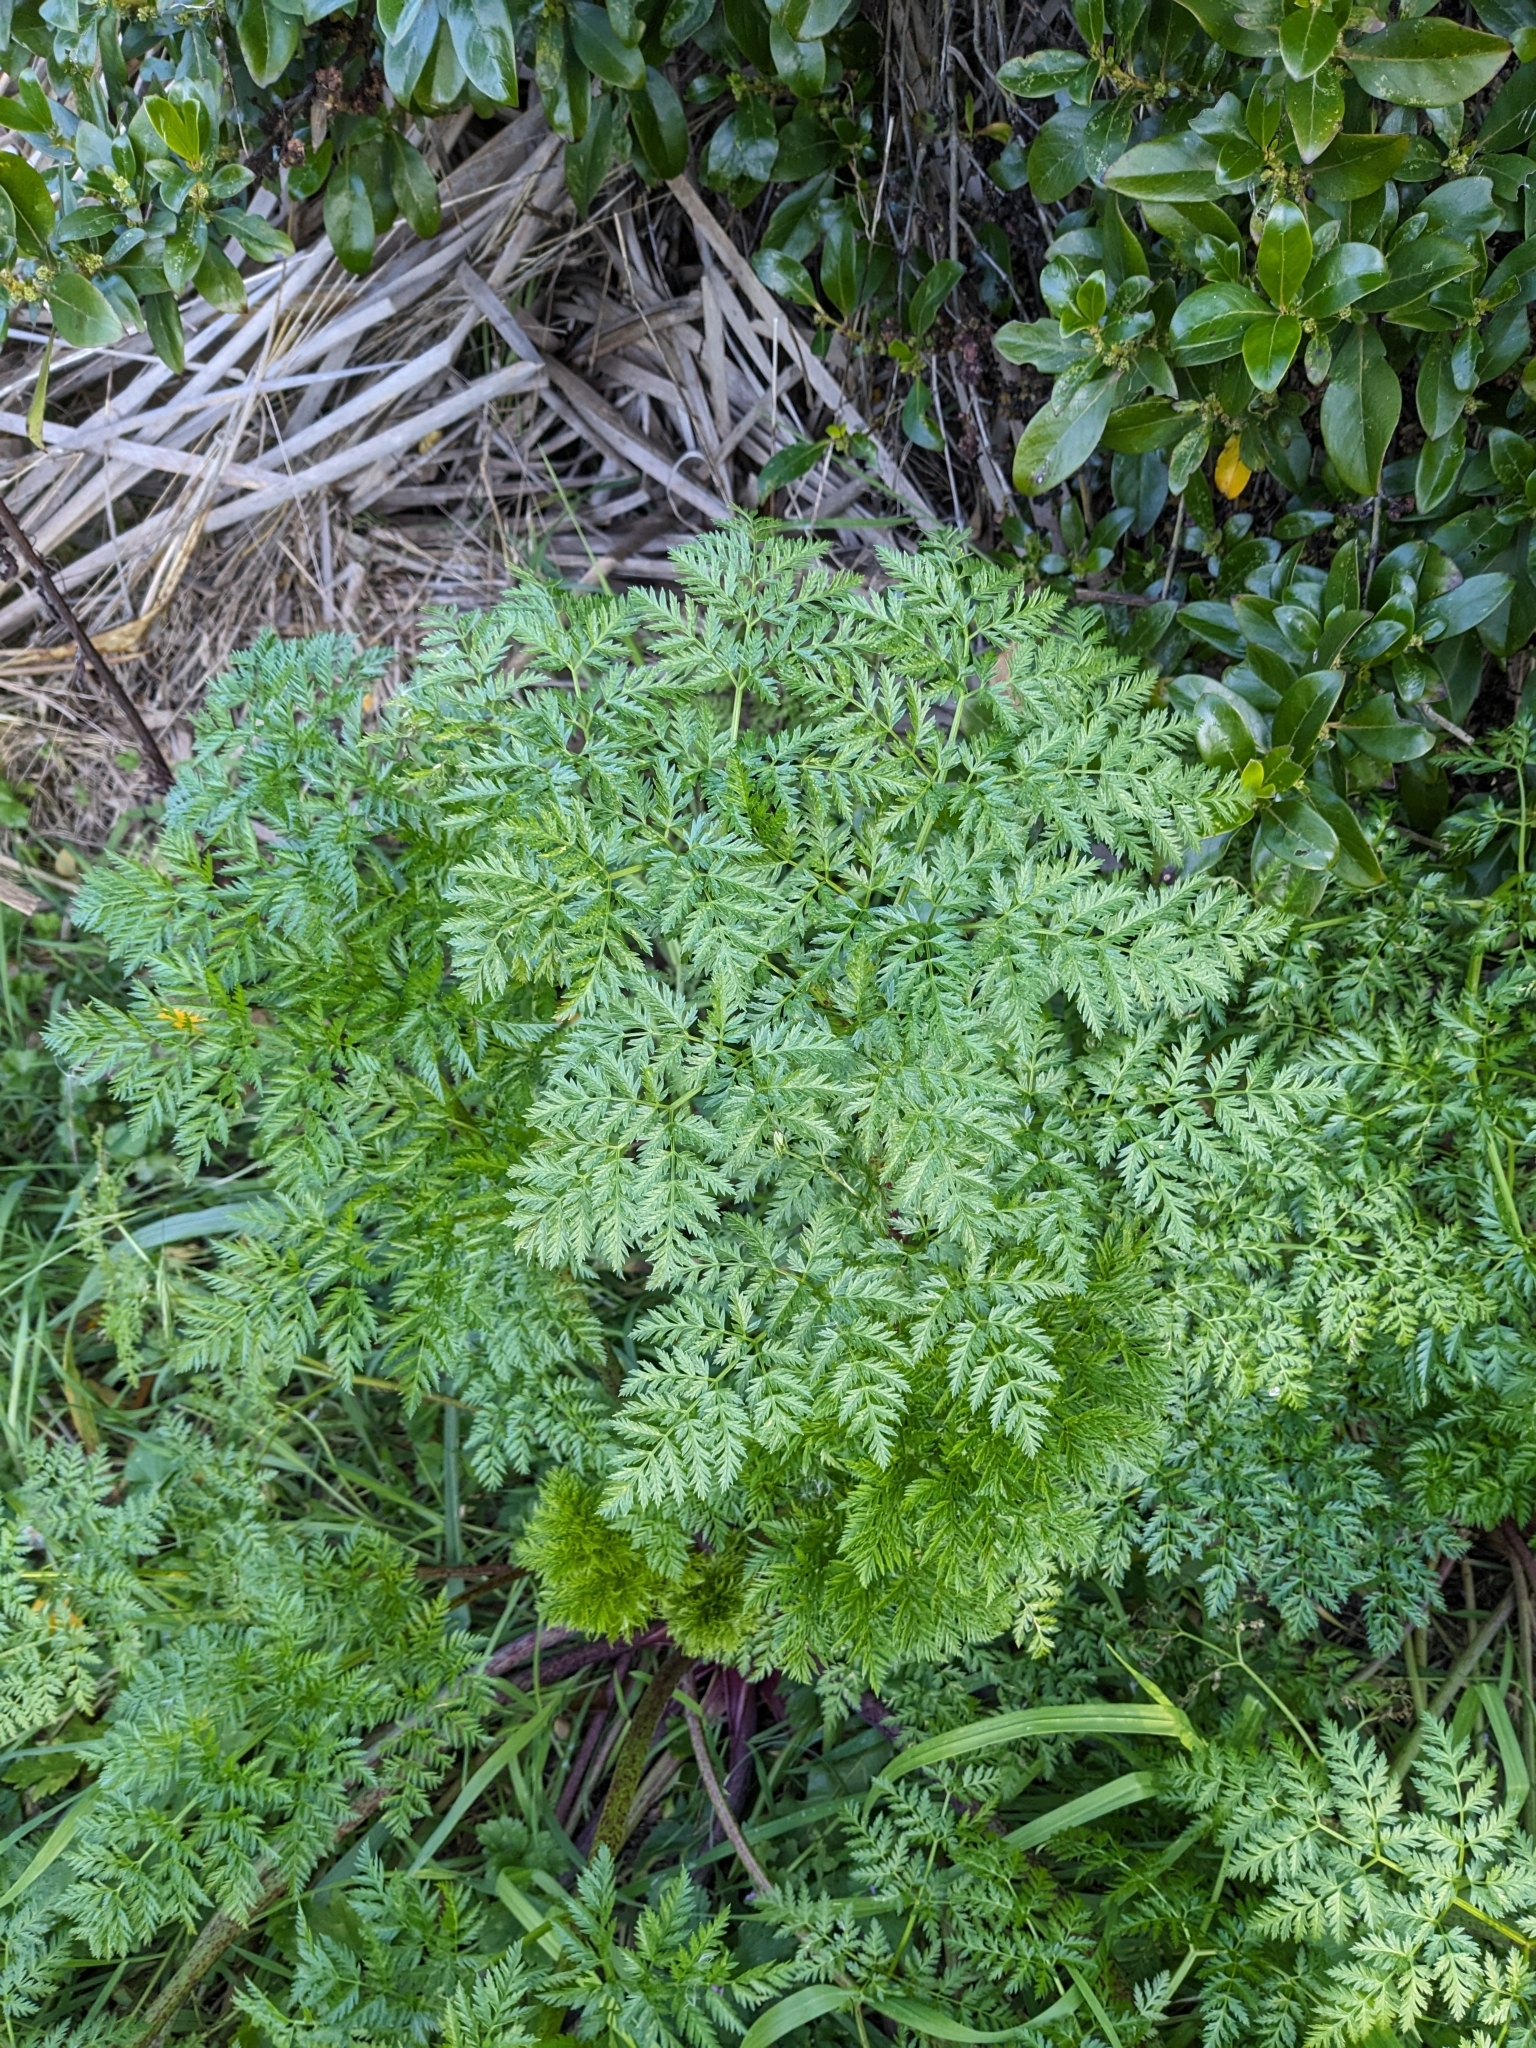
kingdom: Plantae
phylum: Tracheophyta
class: Magnoliopsida
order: Apiales
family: Apiaceae
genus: Conium
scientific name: Conium maculatum
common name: Hemlock
